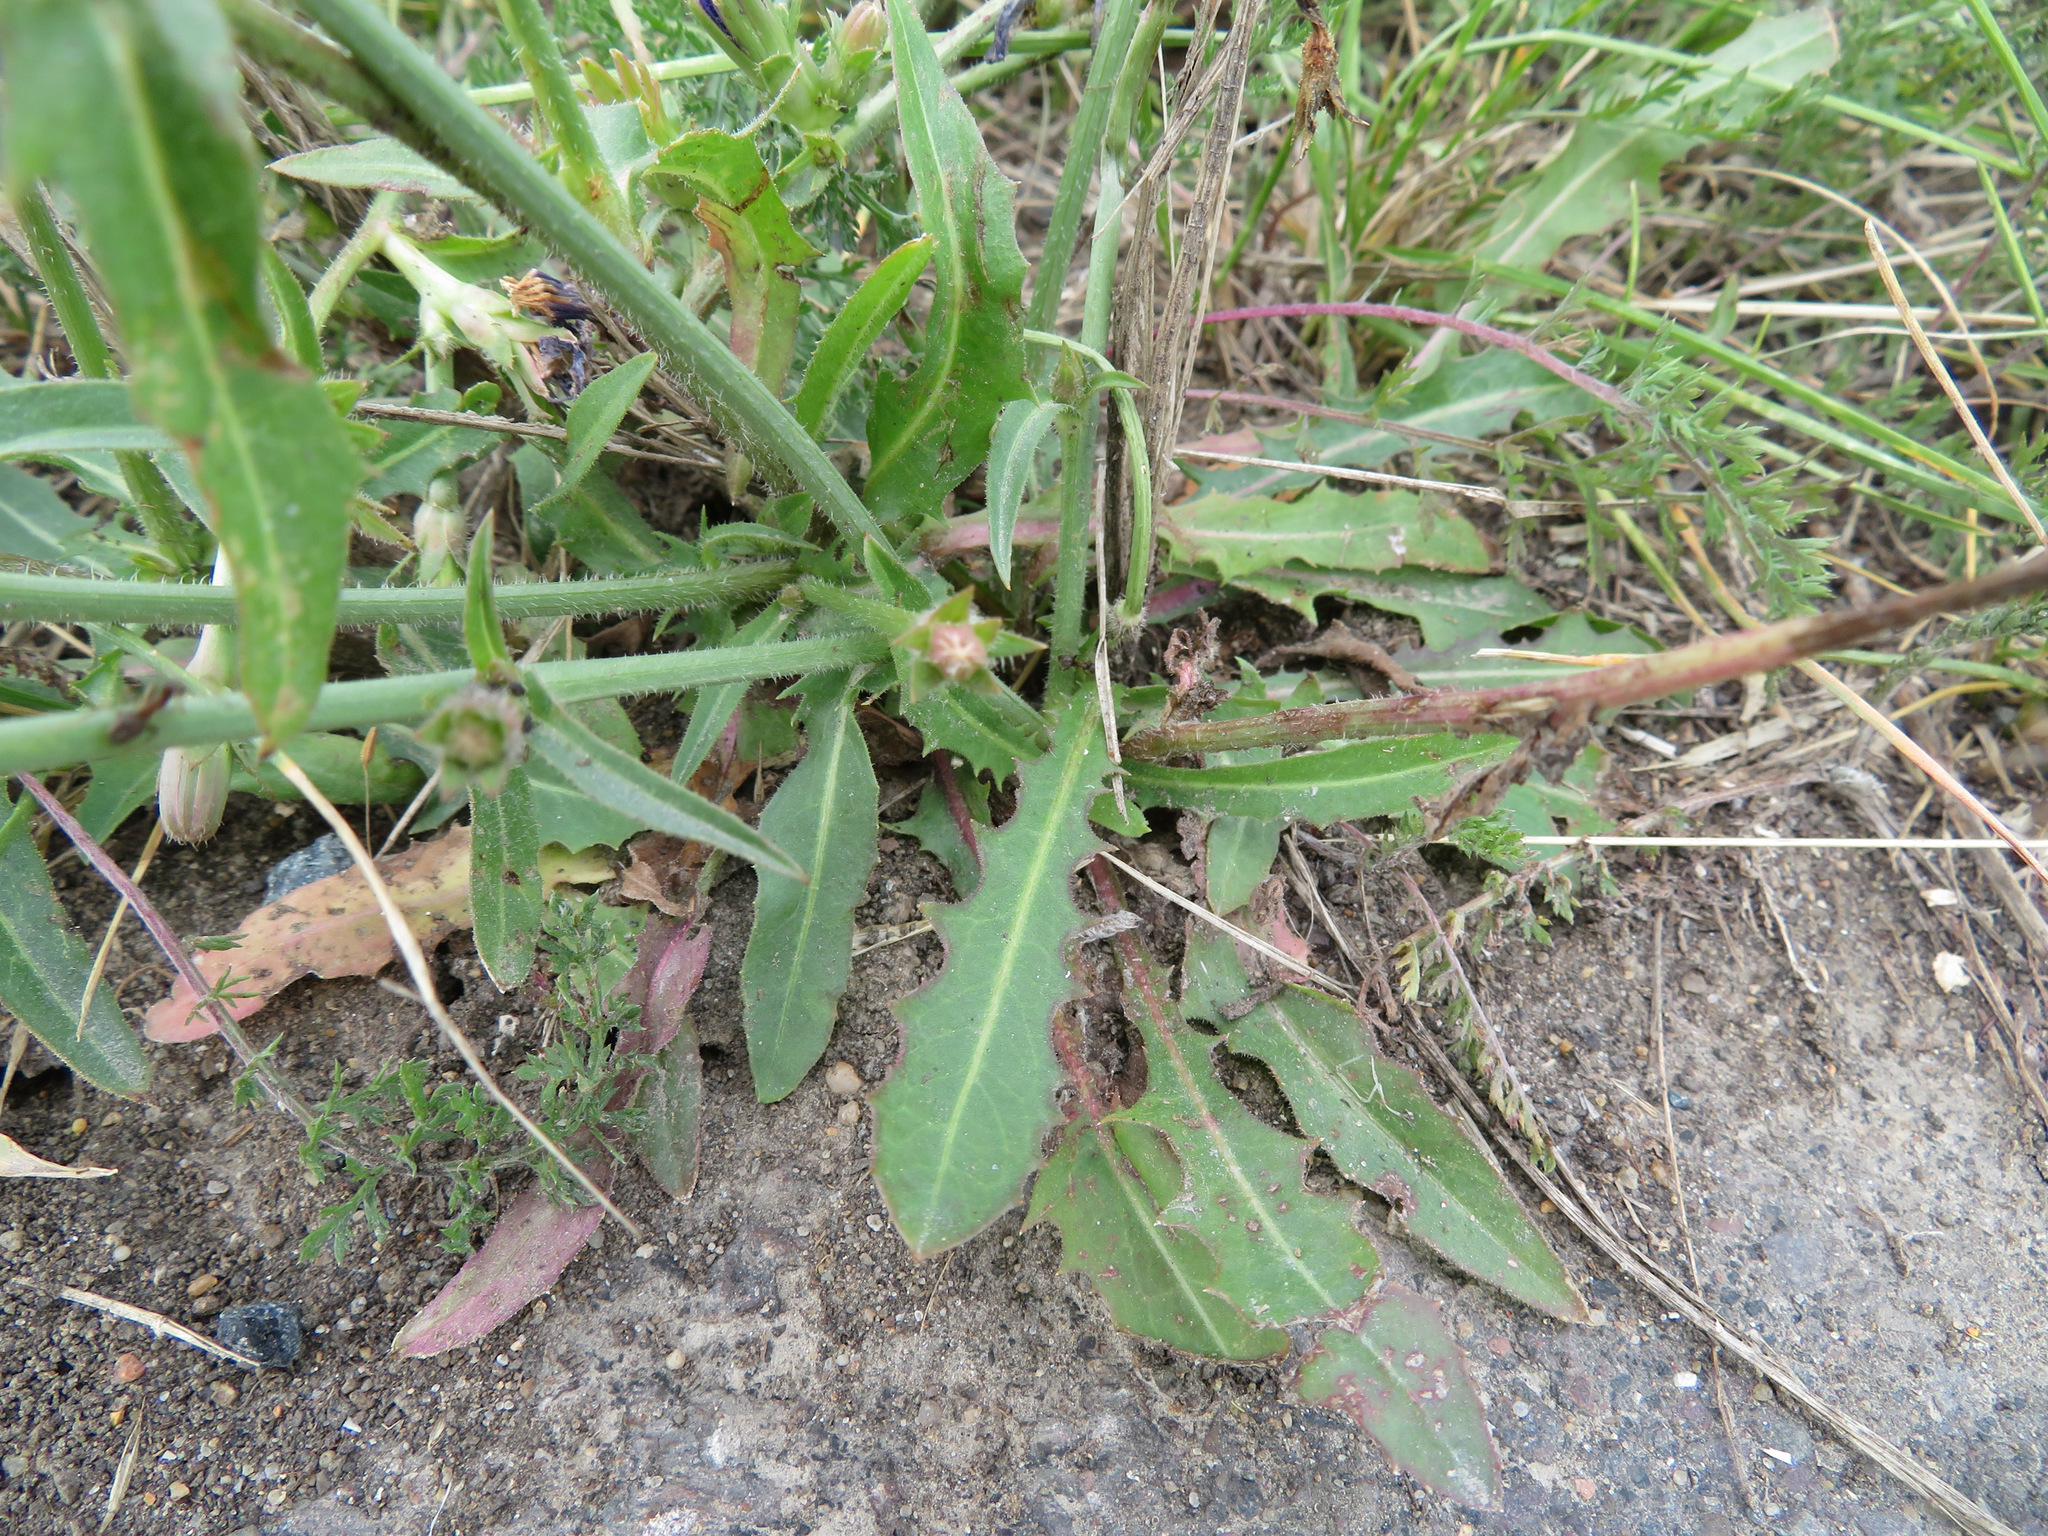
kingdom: Plantae
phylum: Tracheophyta
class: Magnoliopsida
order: Asterales
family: Asteraceae
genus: Cichorium
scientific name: Cichorium intybus
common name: Chicory
